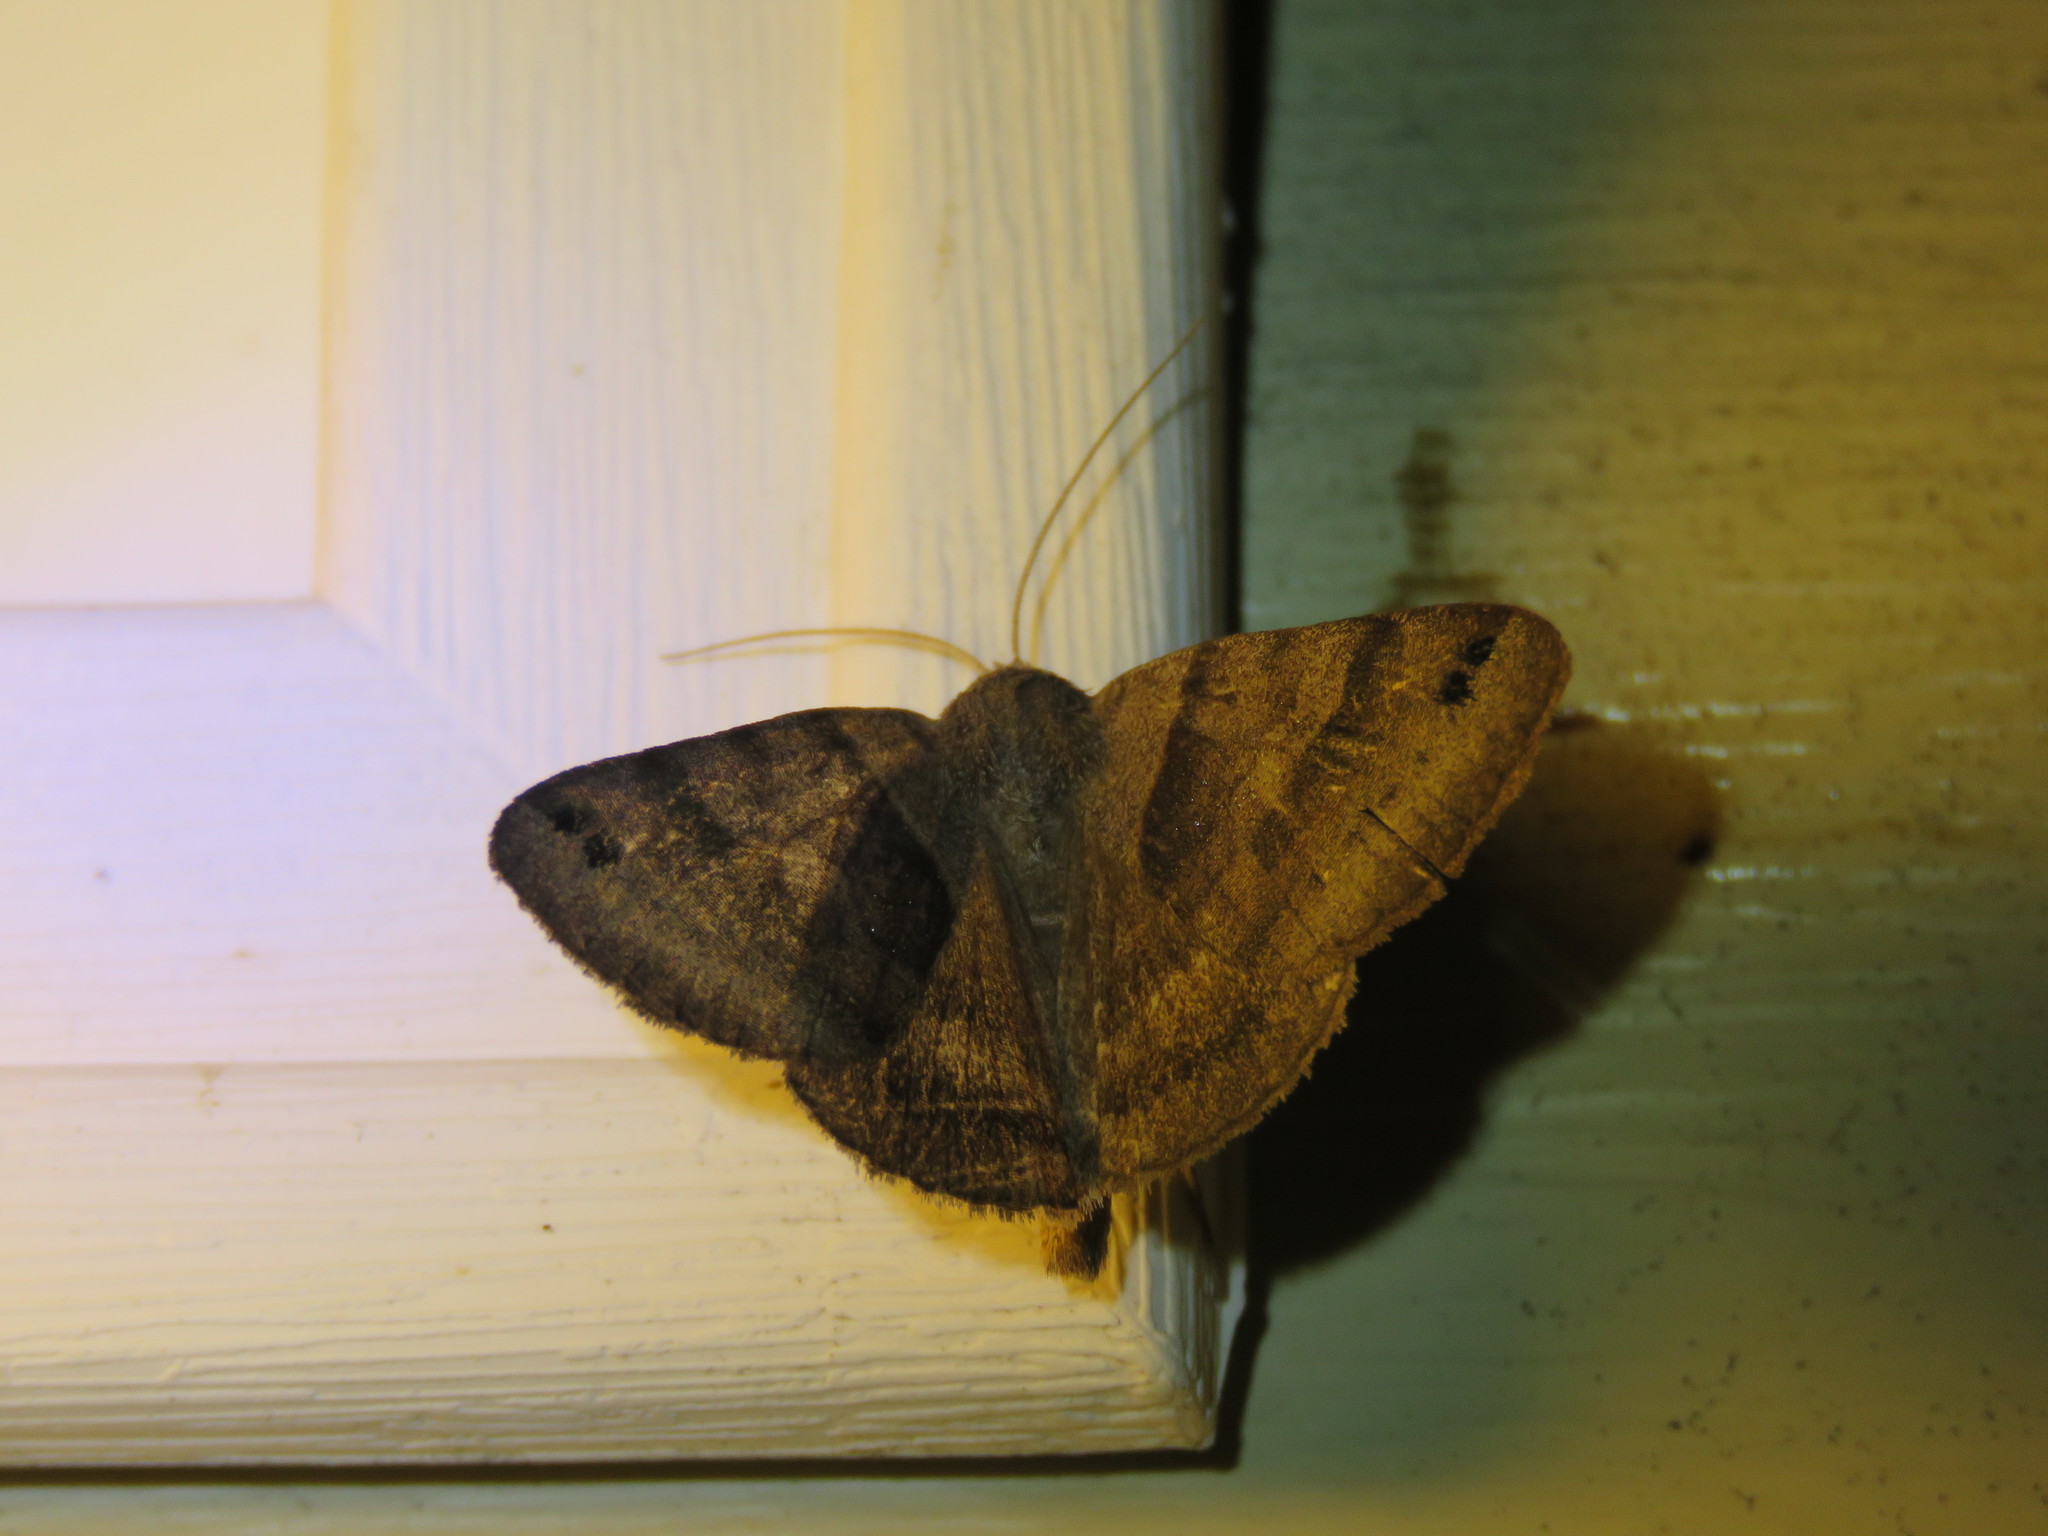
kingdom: Animalia
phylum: Arthropoda
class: Insecta
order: Lepidoptera
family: Erebidae
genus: Caenurgina
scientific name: Caenurgina crassiuscula
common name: Double-barred
